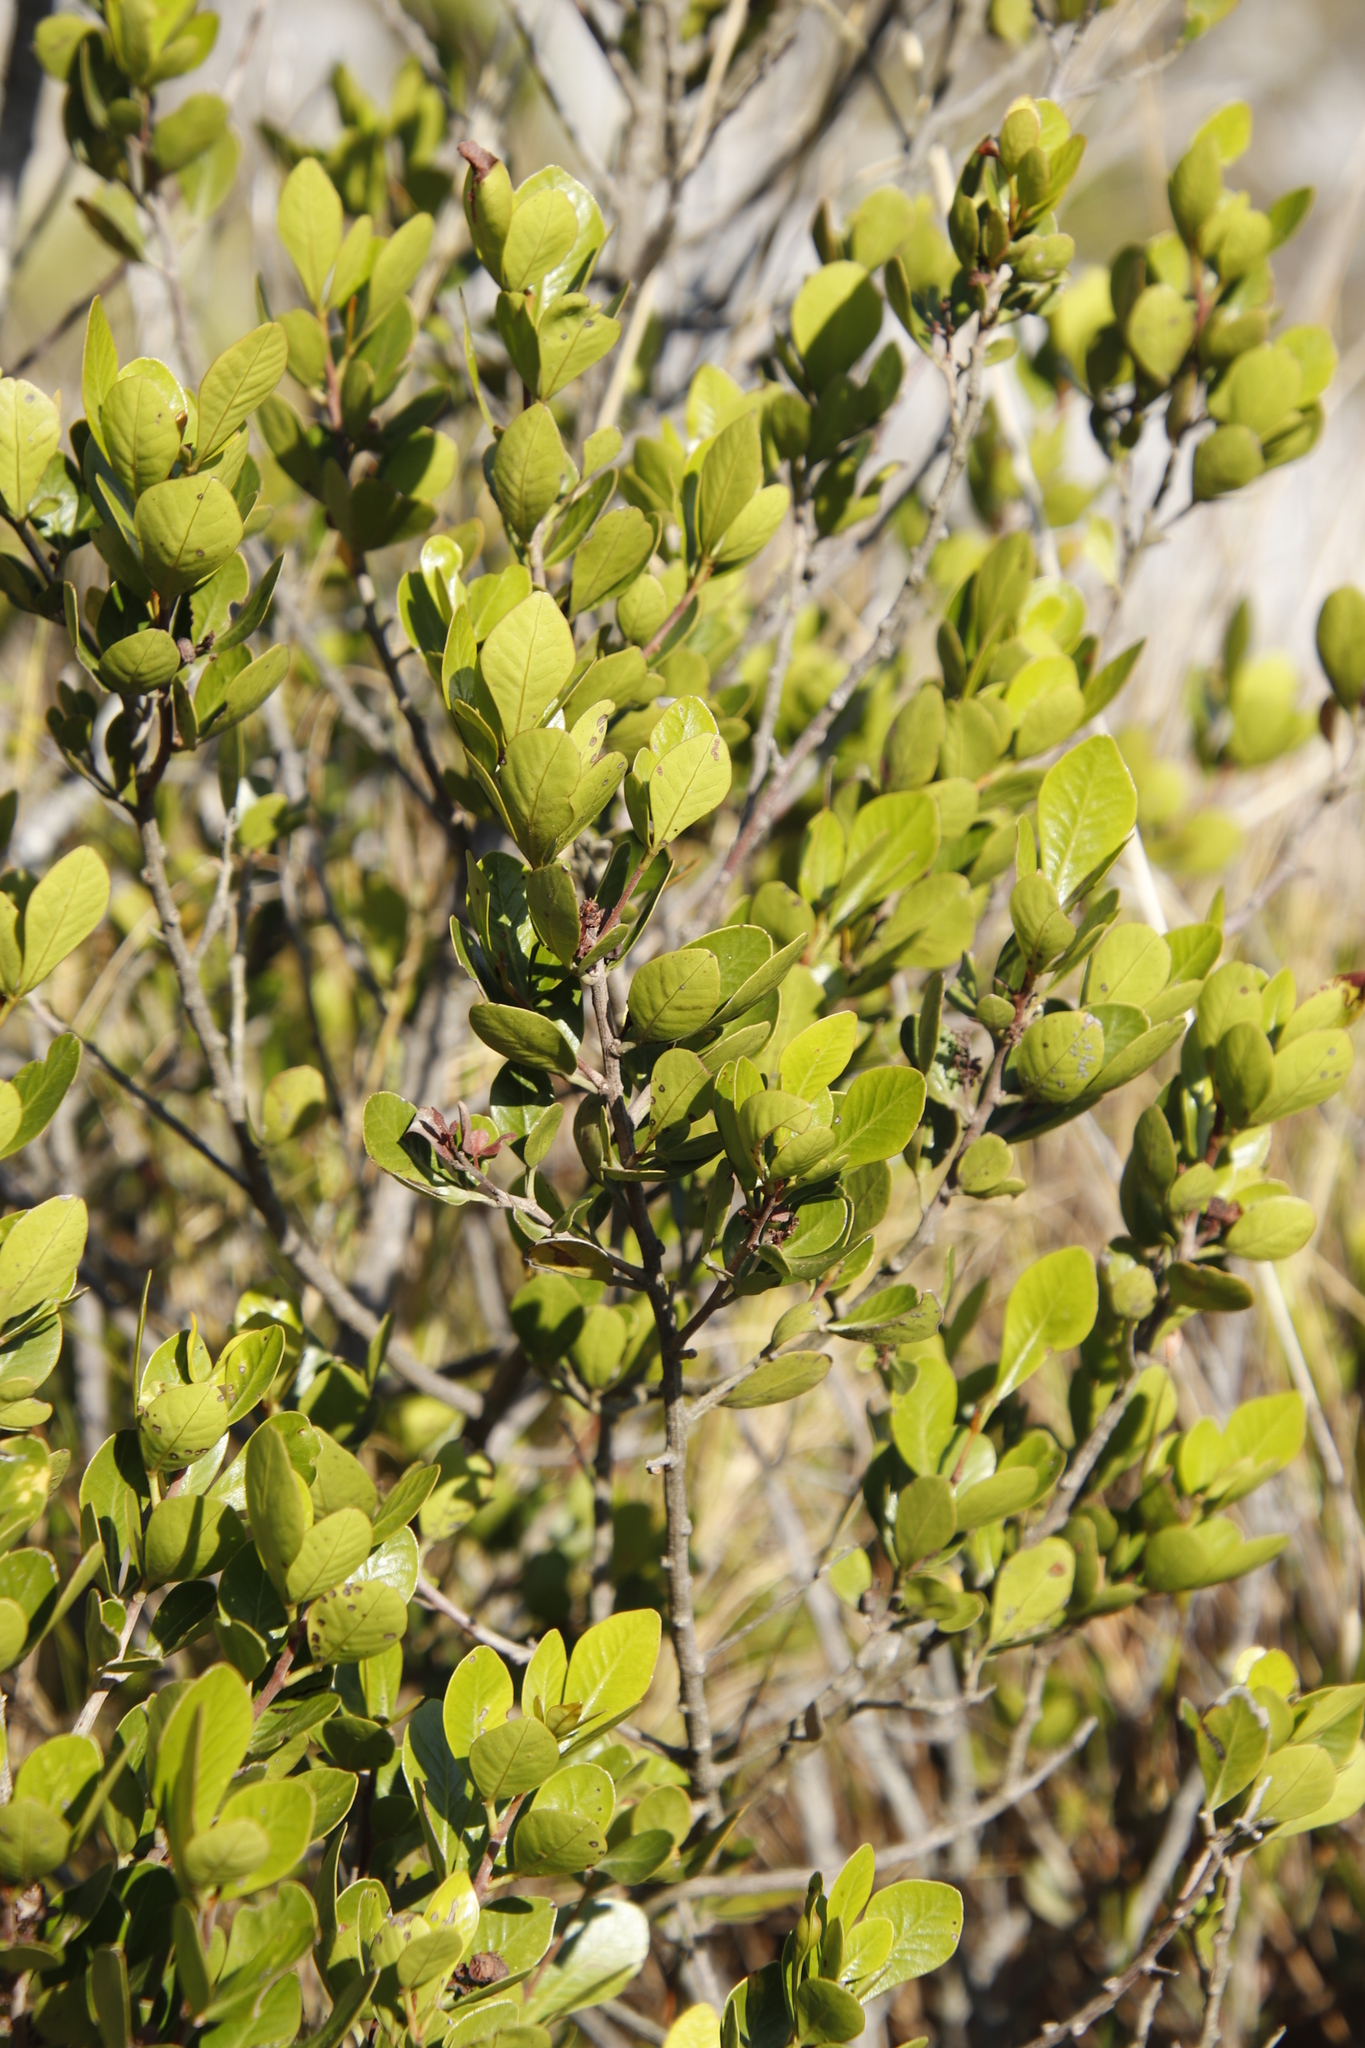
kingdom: Plantae
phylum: Tracheophyta
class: Magnoliopsida
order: Sapindales
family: Anacardiaceae
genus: Searsia
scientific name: Searsia lucida
